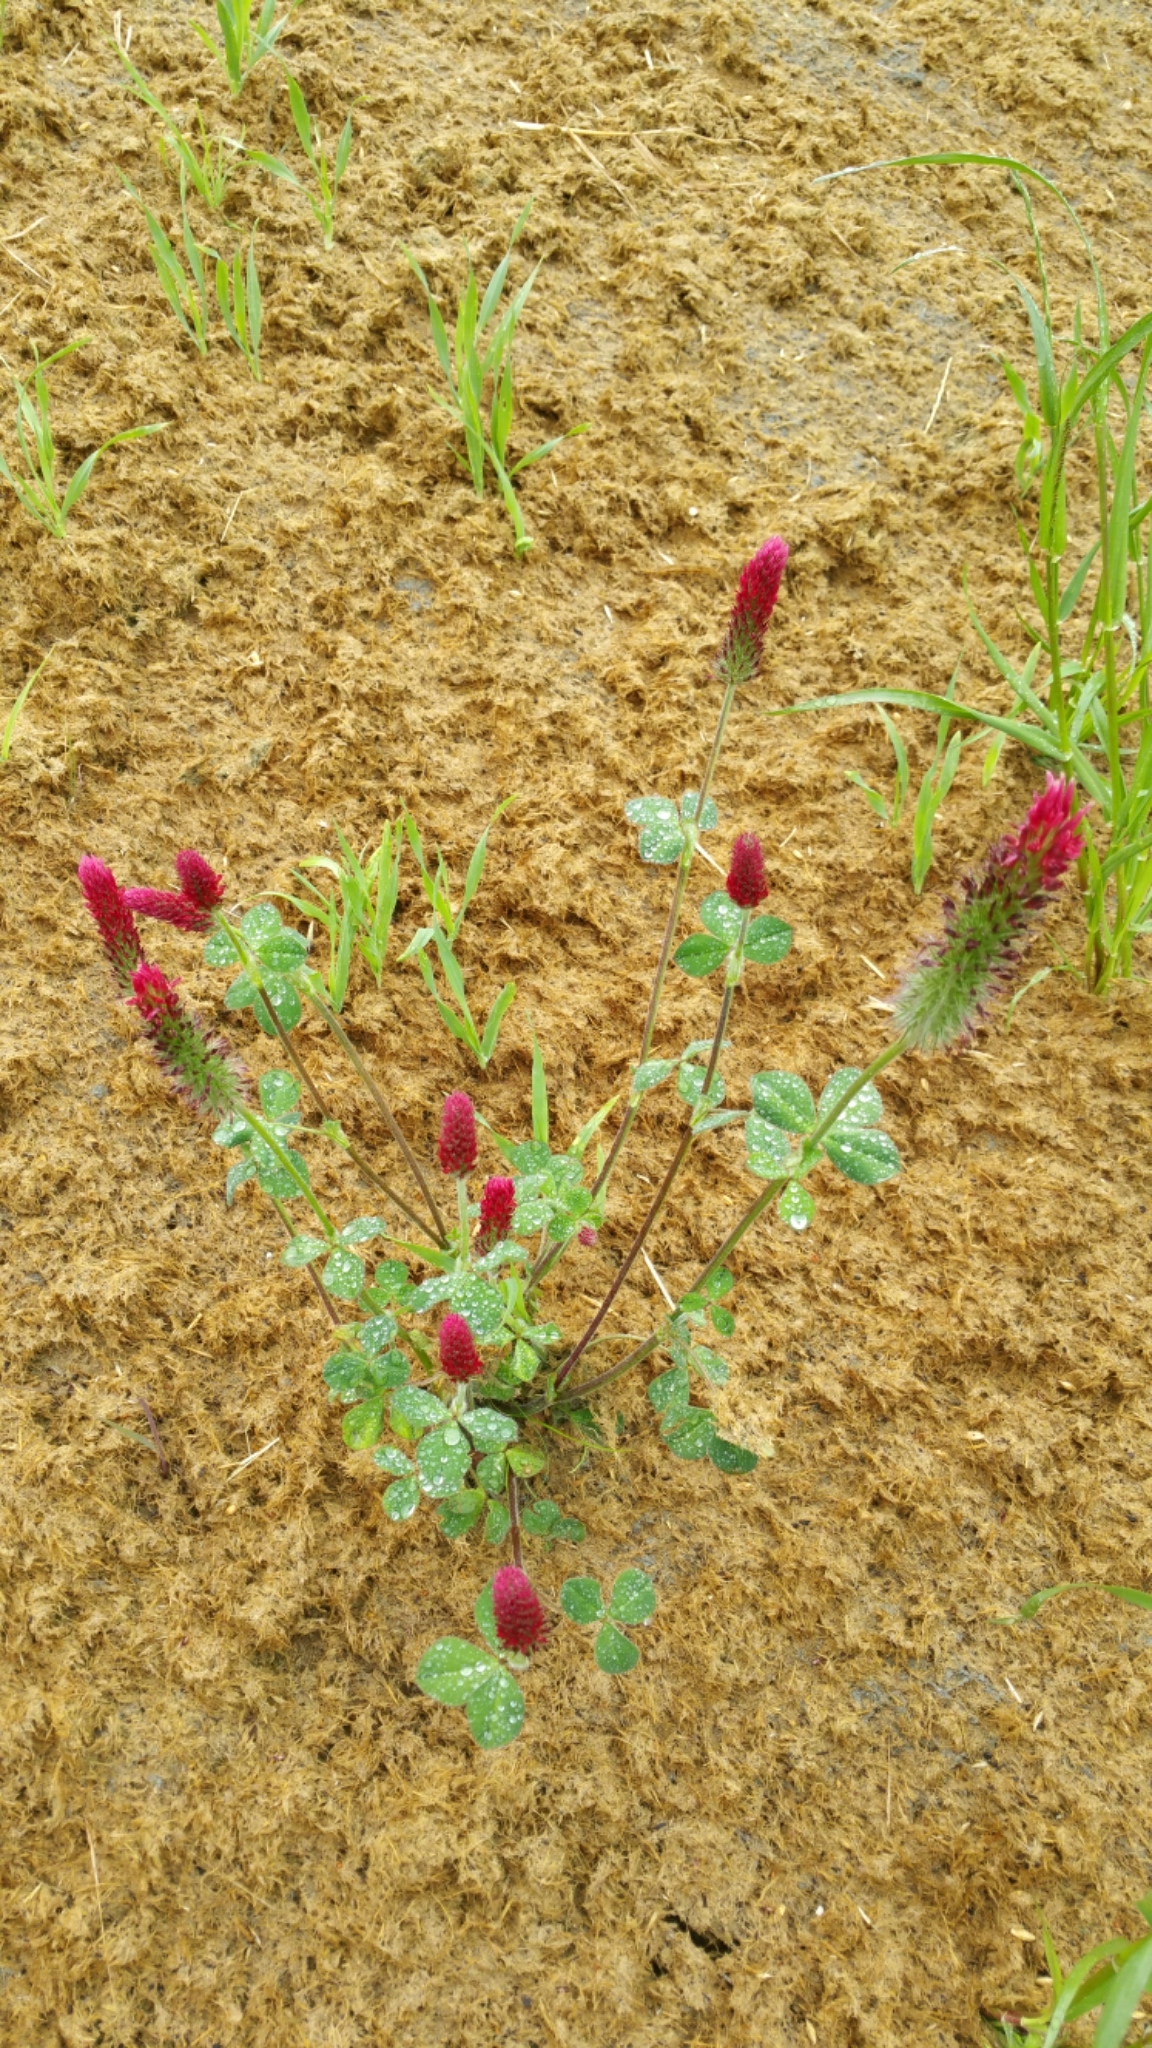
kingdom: Plantae
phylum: Tracheophyta
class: Magnoliopsida
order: Fabales
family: Fabaceae
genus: Trifolium
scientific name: Trifolium incarnatum
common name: Crimson clover
